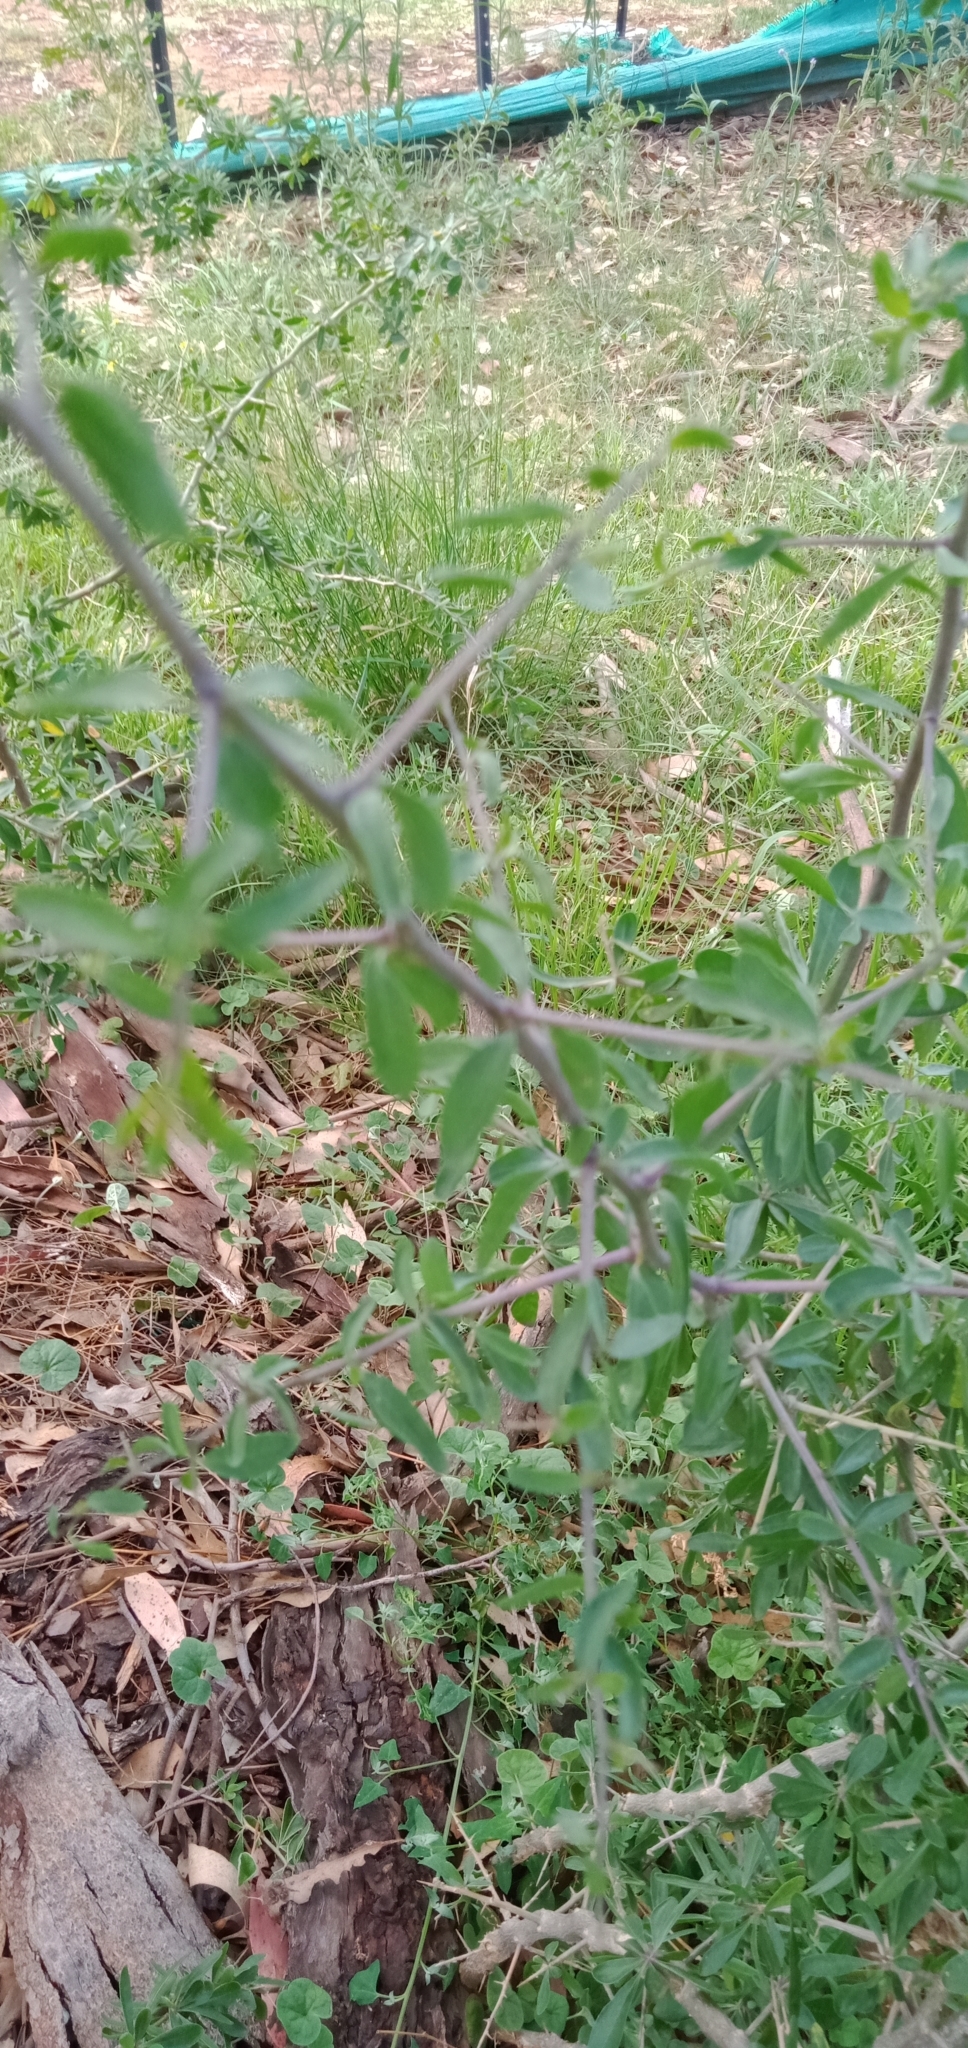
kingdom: Plantae
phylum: Tracheophyta
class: Magnoliopsida
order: Solanales
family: Solanaceae
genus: Lycium
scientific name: Lycium ferocissimum
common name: African boxthorn
